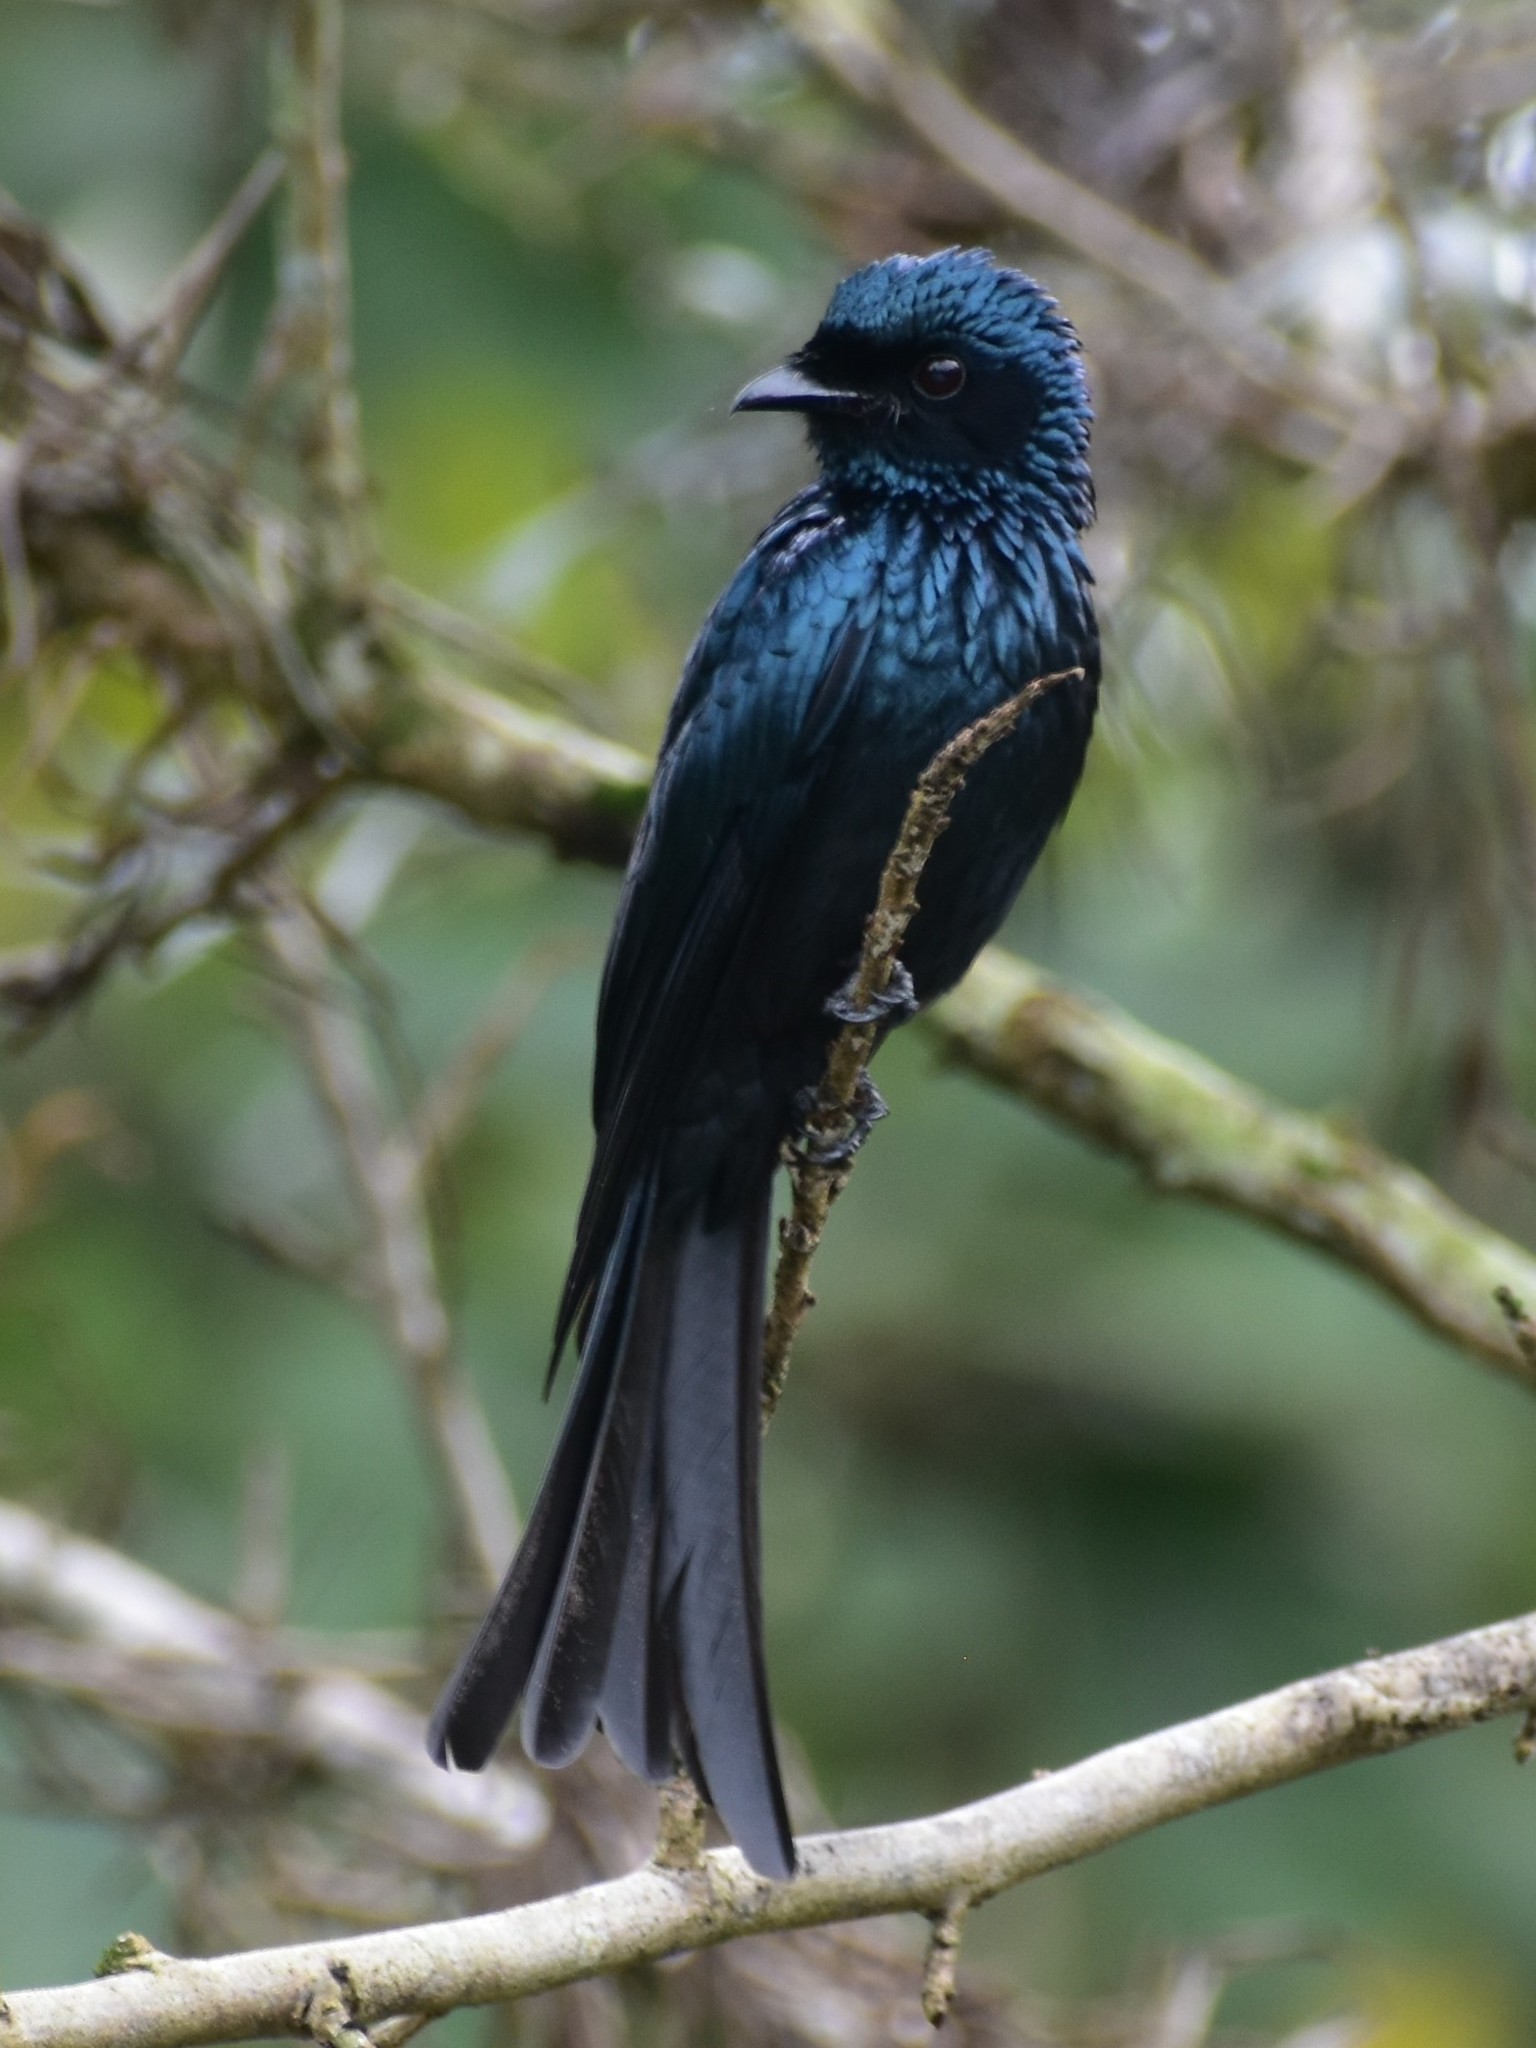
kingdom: Animalia
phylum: Chordata
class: Aves
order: Passeriformes
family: Dicruridae
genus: Dicrurus
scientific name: Dicrurus aeneus
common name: Bronzed drongo
